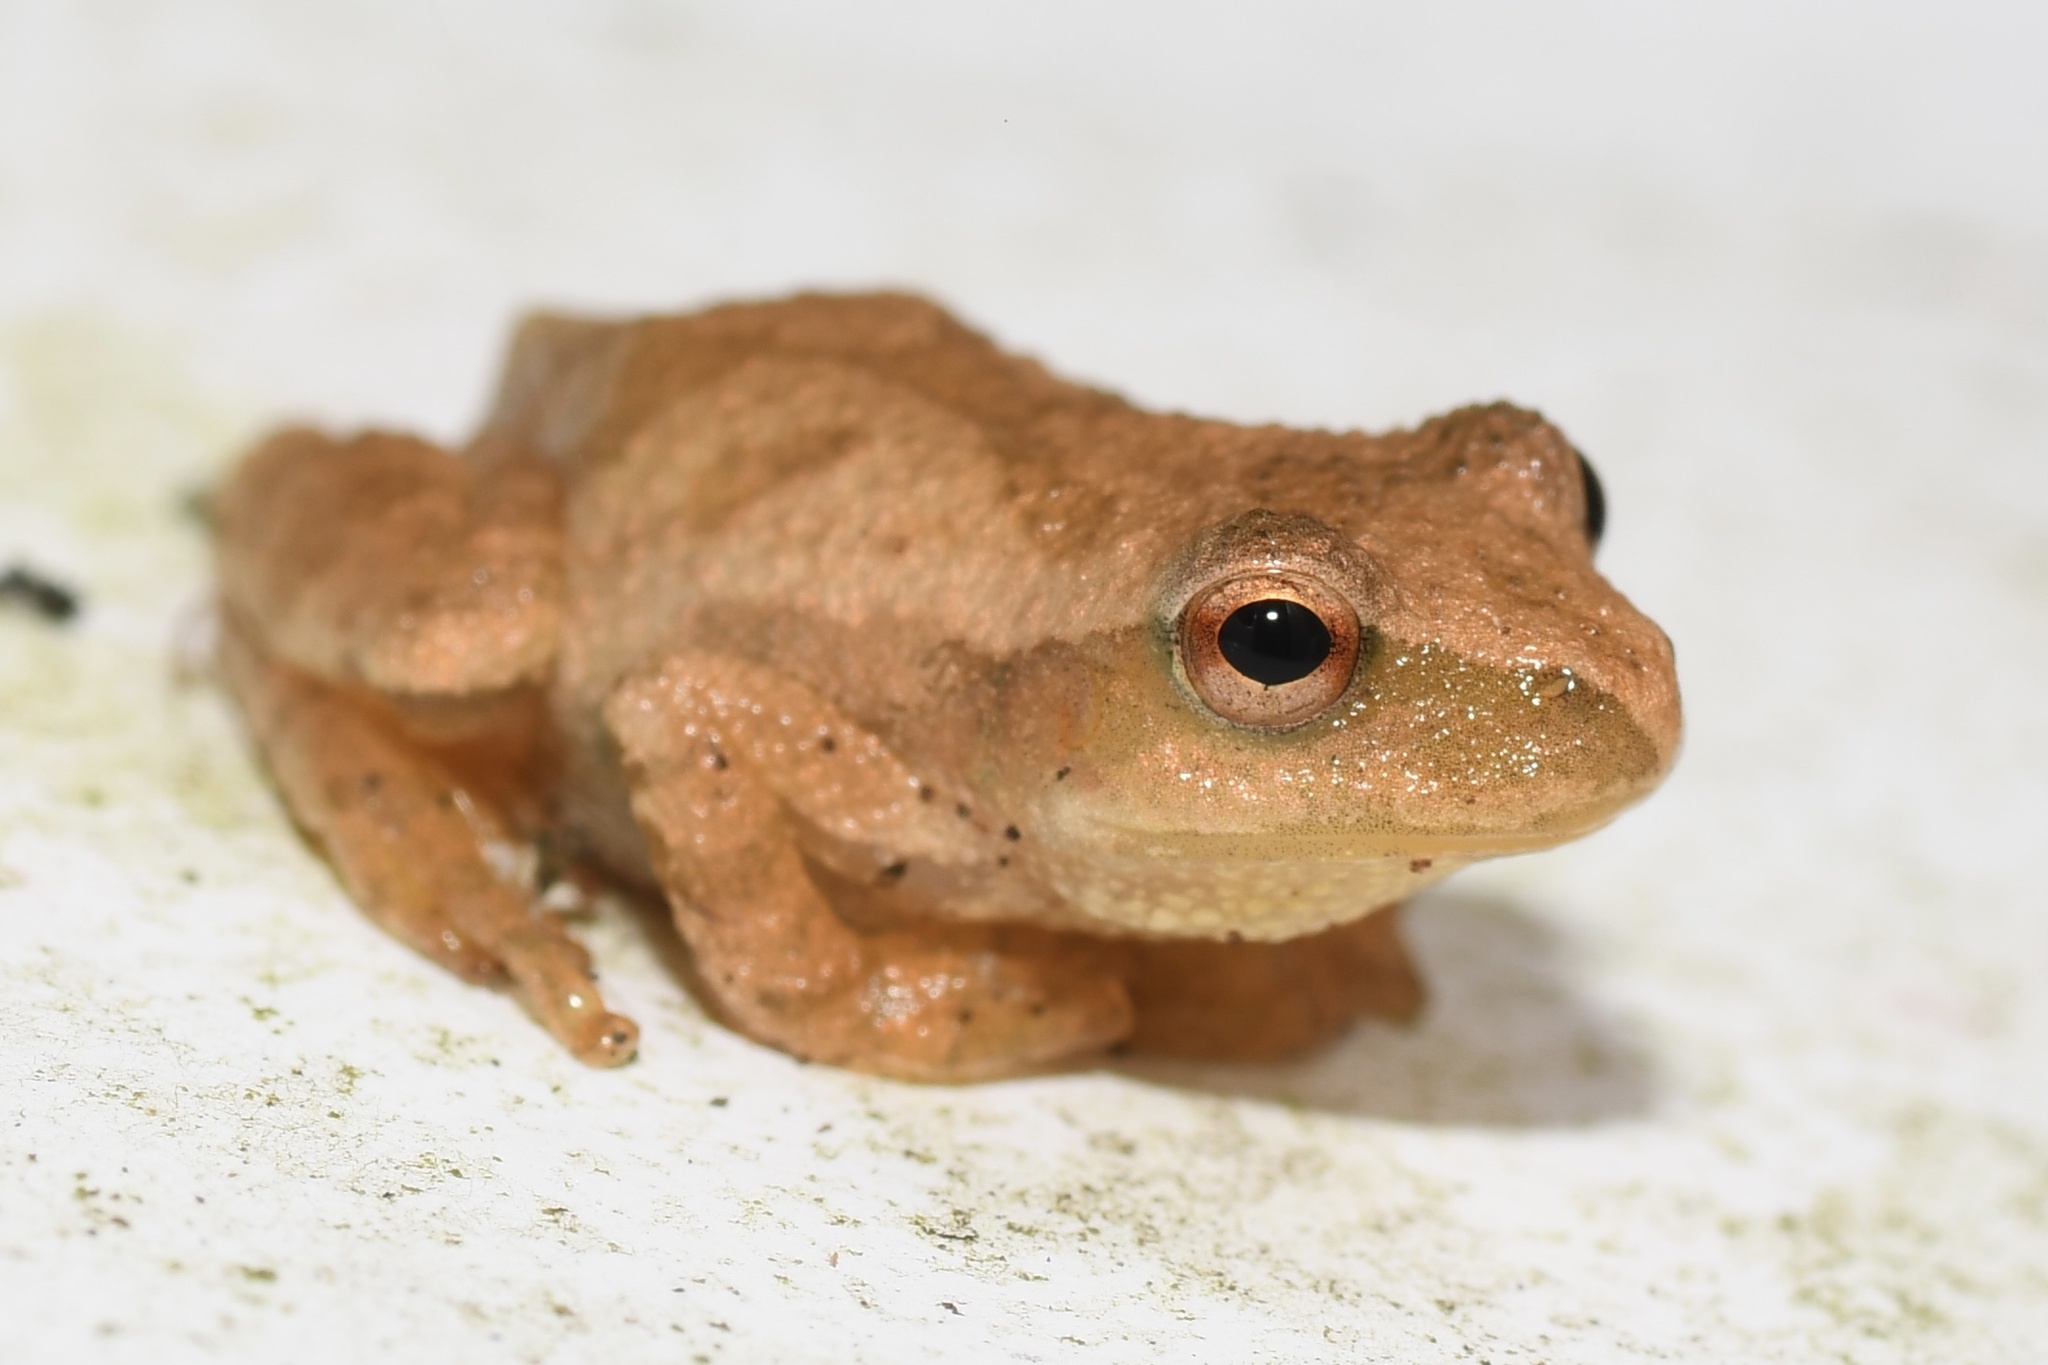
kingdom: Animalia
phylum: Chordata
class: Amphibia
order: Anura
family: Hylidae
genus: Pseudacris
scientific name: Pseudacris crucifer
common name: Spring peeper
